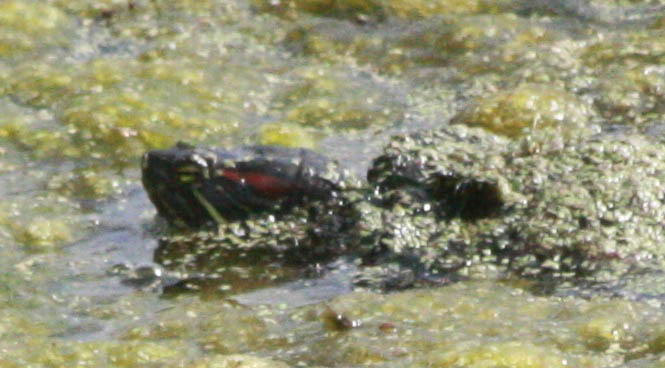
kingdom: Animalia
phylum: Chordata
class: Testudines
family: Emydidae
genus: Trachemys
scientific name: Trachemys scripta
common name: Slider
